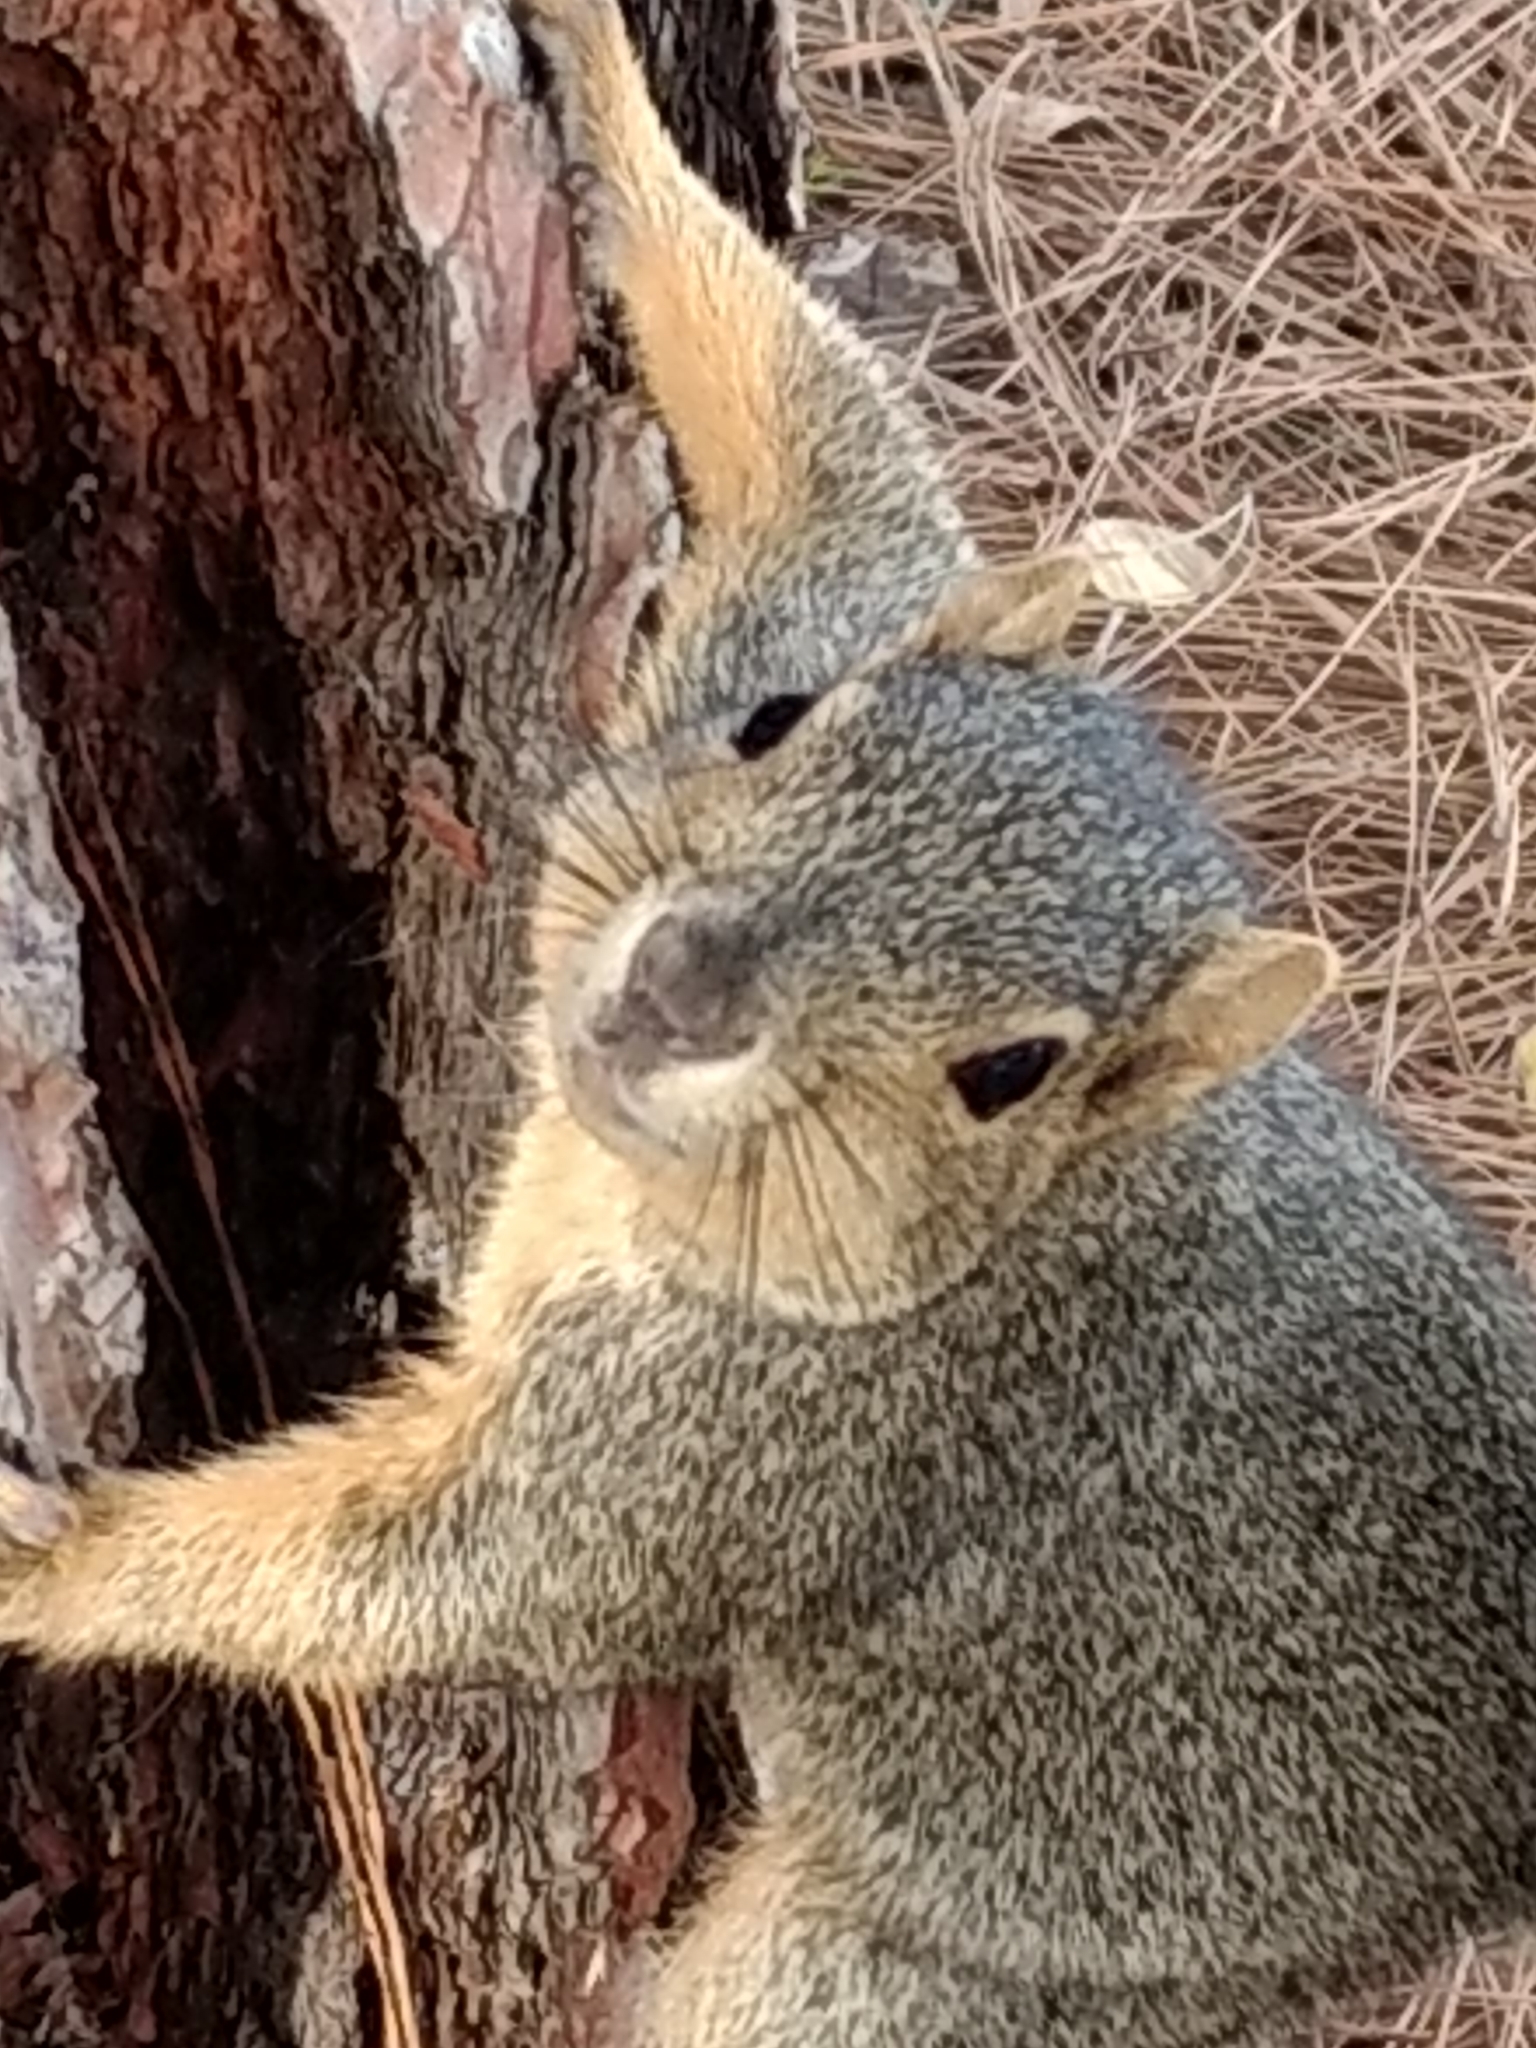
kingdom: Animalia
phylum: Chordata
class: Mammalia
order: Rodentia
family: Sciuridae
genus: Sciurus
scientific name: Sciurus niger
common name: Fox squirrel
